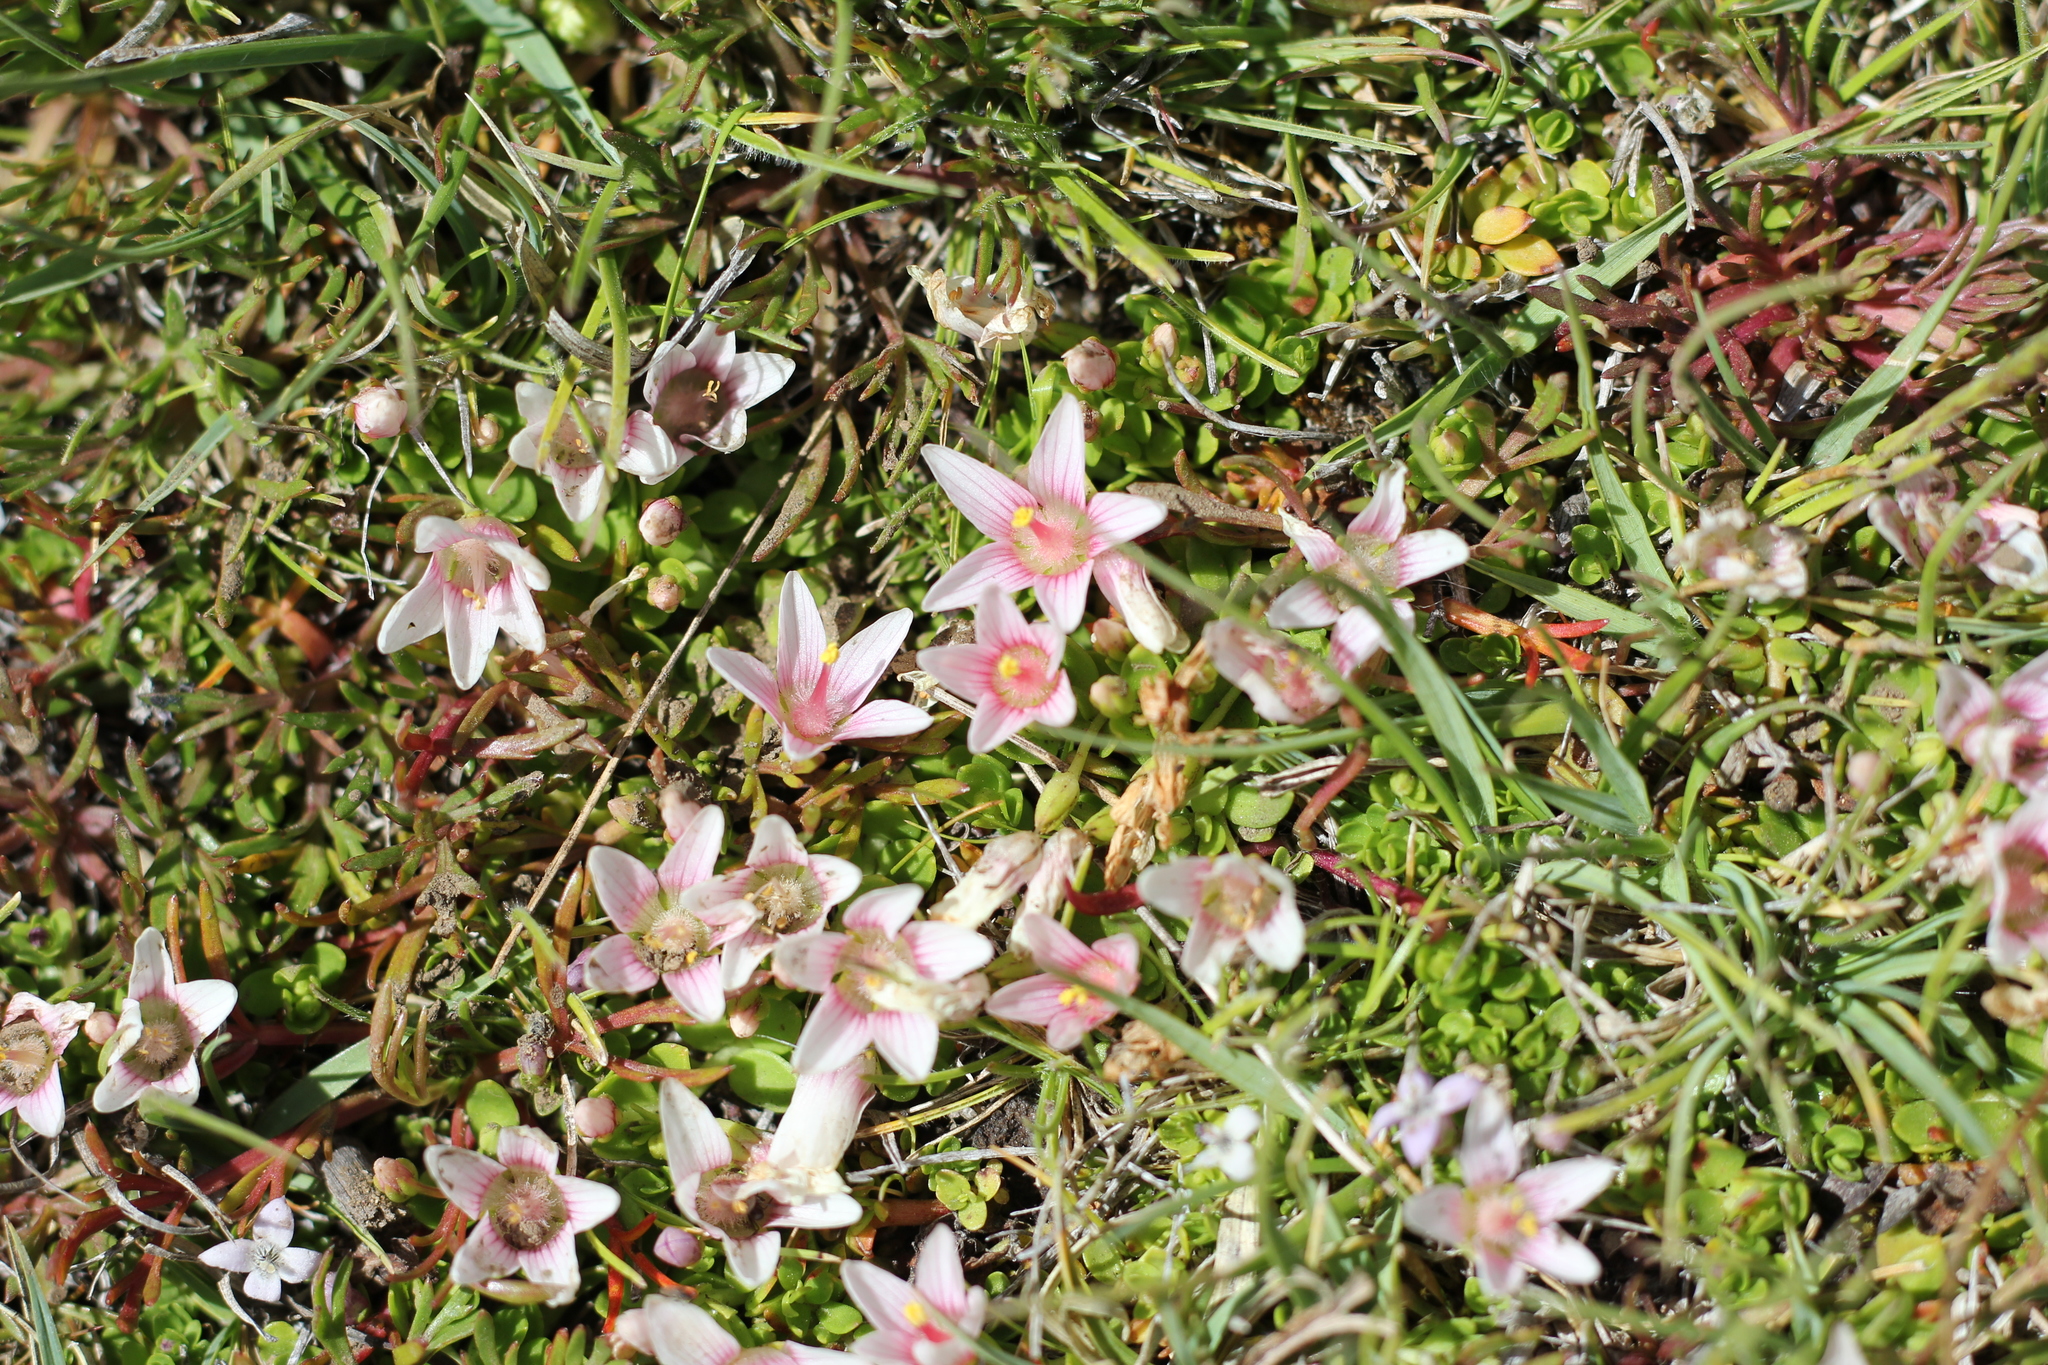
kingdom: Plantae
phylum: Tracheophyta
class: Magnoliopsida
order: Ericales
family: Primulaceae
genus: Lysimachia
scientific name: Lysimachia amoena
